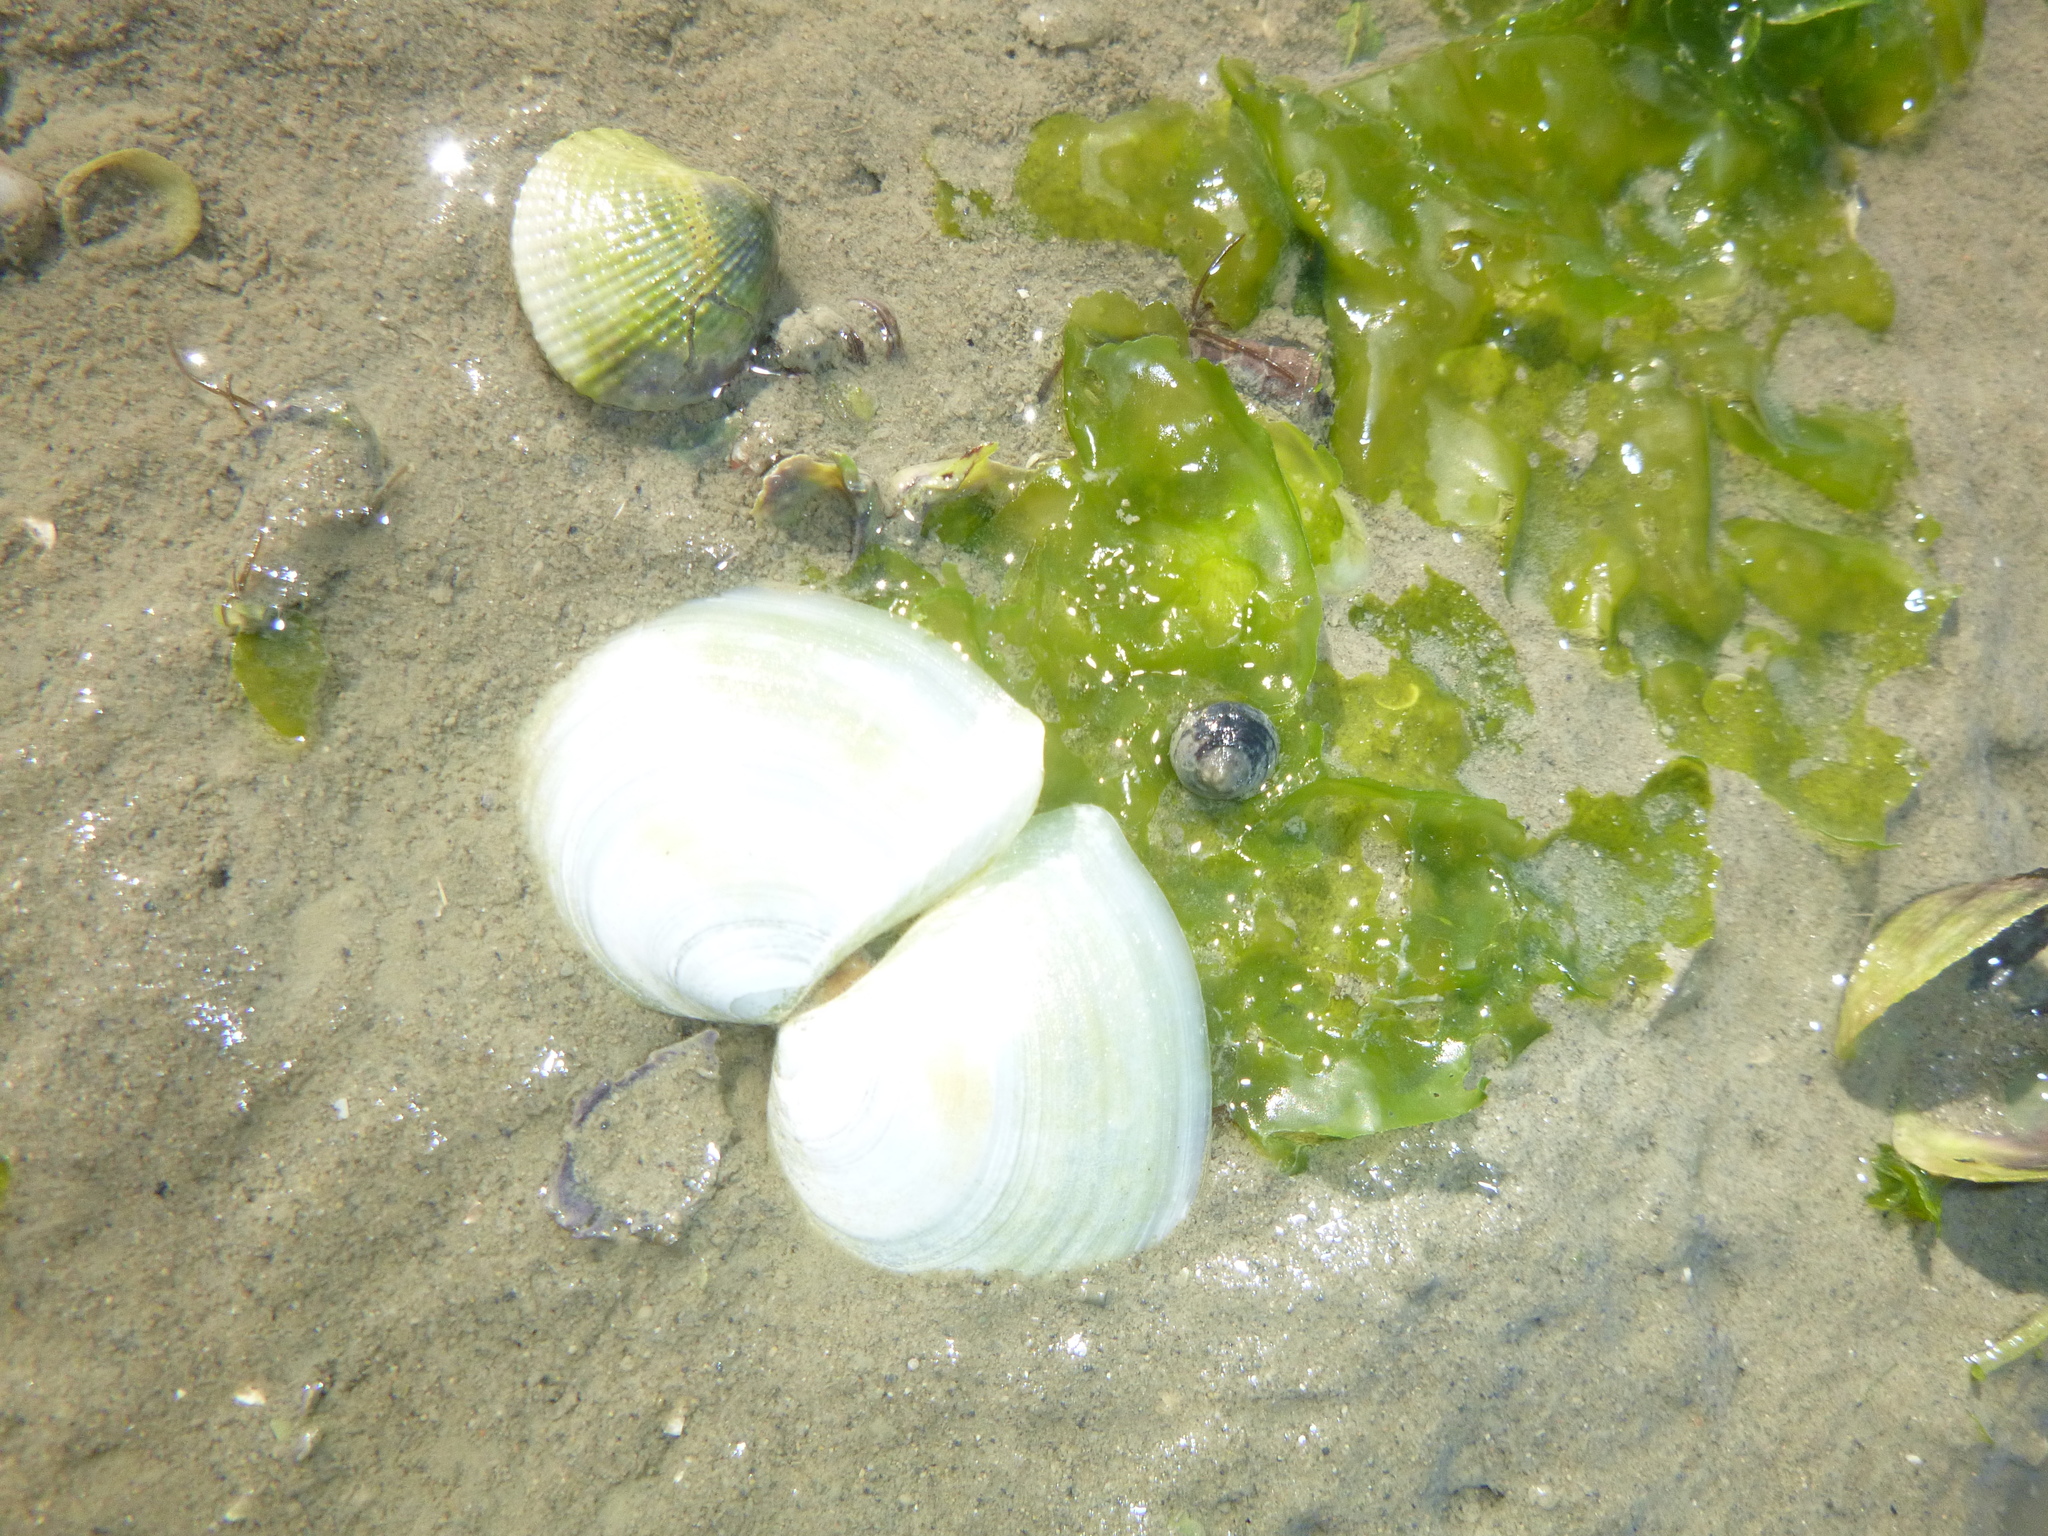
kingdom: Animalia
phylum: Mollusca
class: Bivalvia
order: Cardiida
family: Tellinidae
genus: Macomona
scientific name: Macomona liliana
